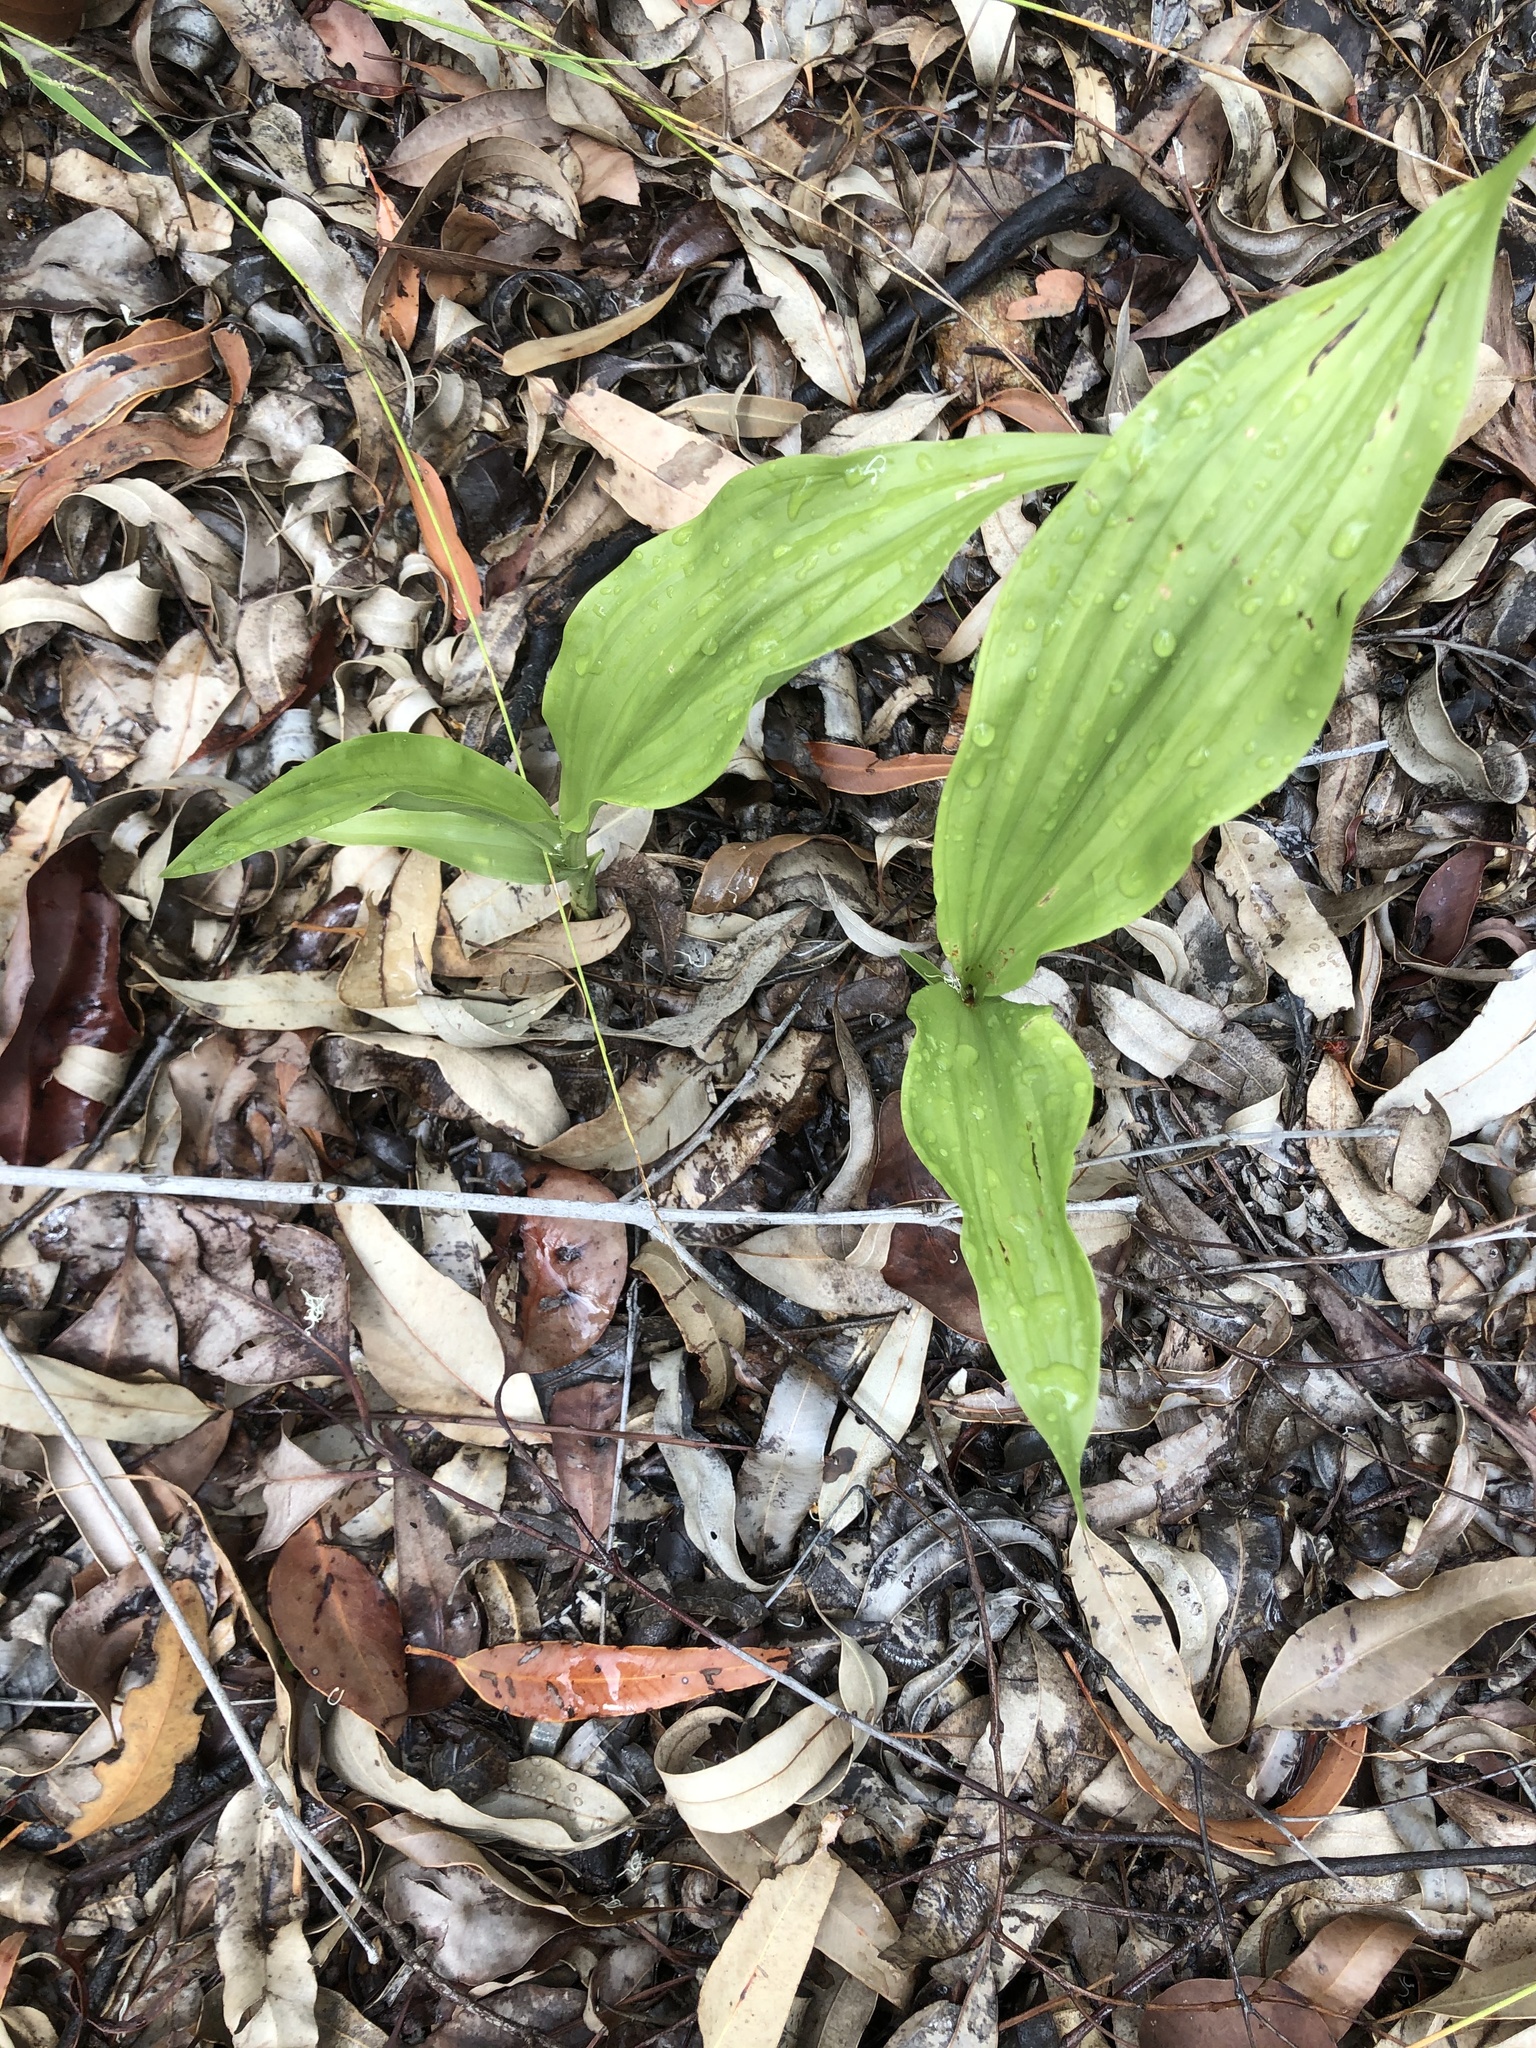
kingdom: Plantae
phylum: Tracheophyta
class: Liliopsida
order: Asparagales
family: Orchidaceae
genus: Eulophia
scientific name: Eulophia cernua
